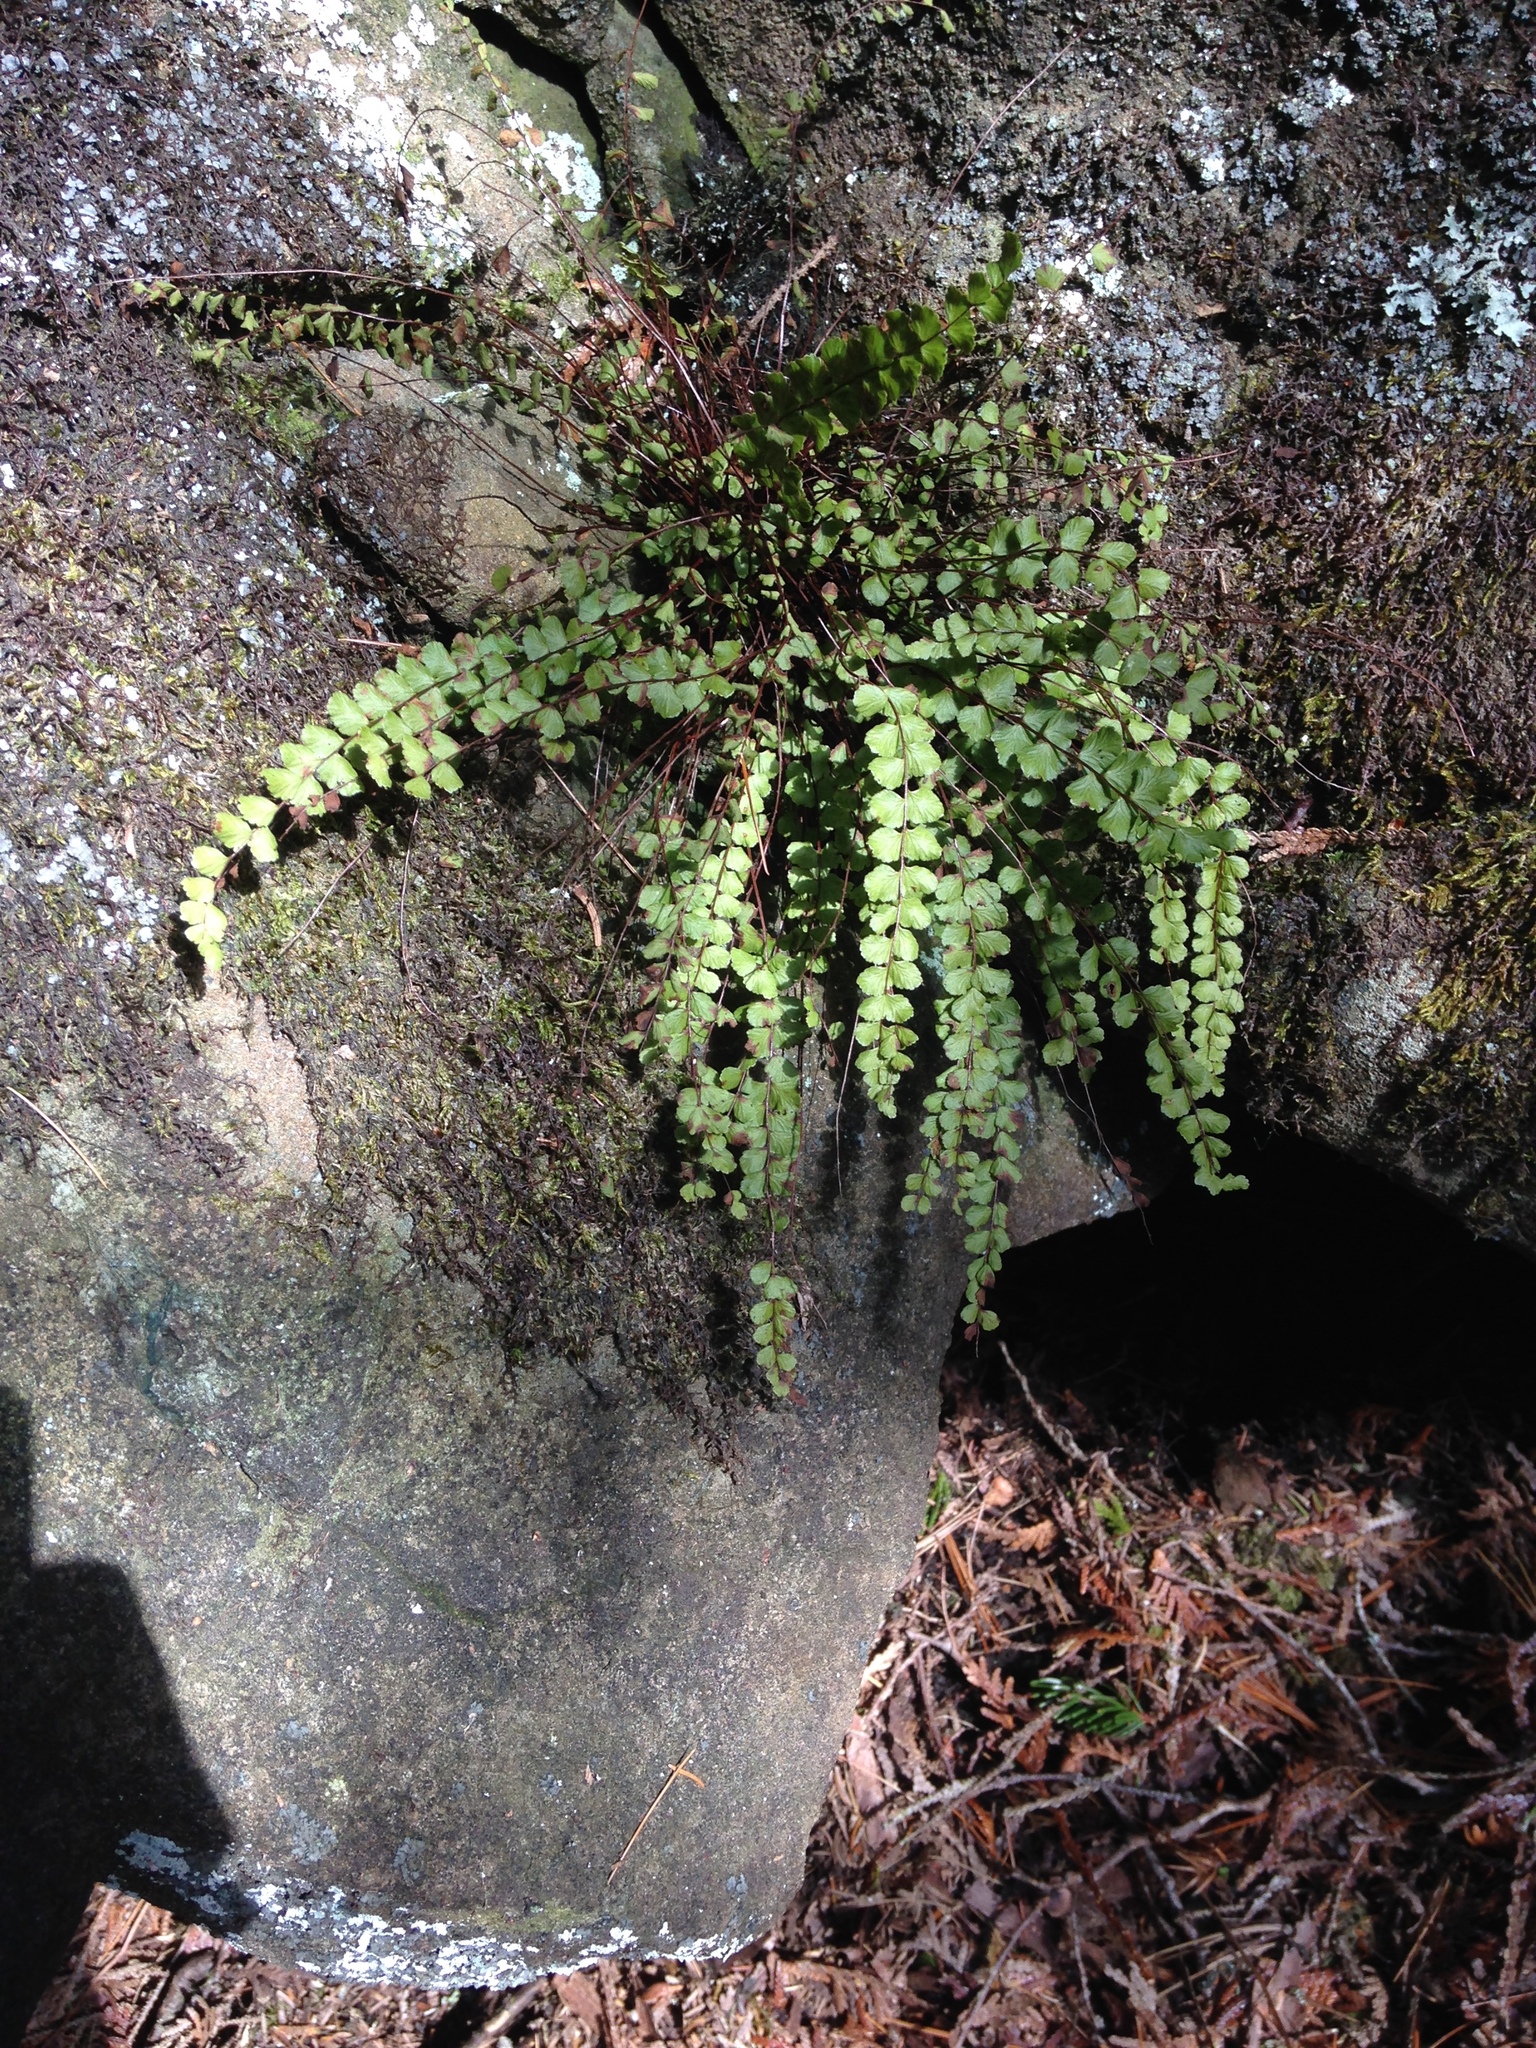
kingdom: Plantae
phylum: Tracheophyta
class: Polypodiopsida
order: Polypodiales
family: Aspleniaceae
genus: Asplenium
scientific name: Asplenium trichomanes
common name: Maidenhair spleenwort
